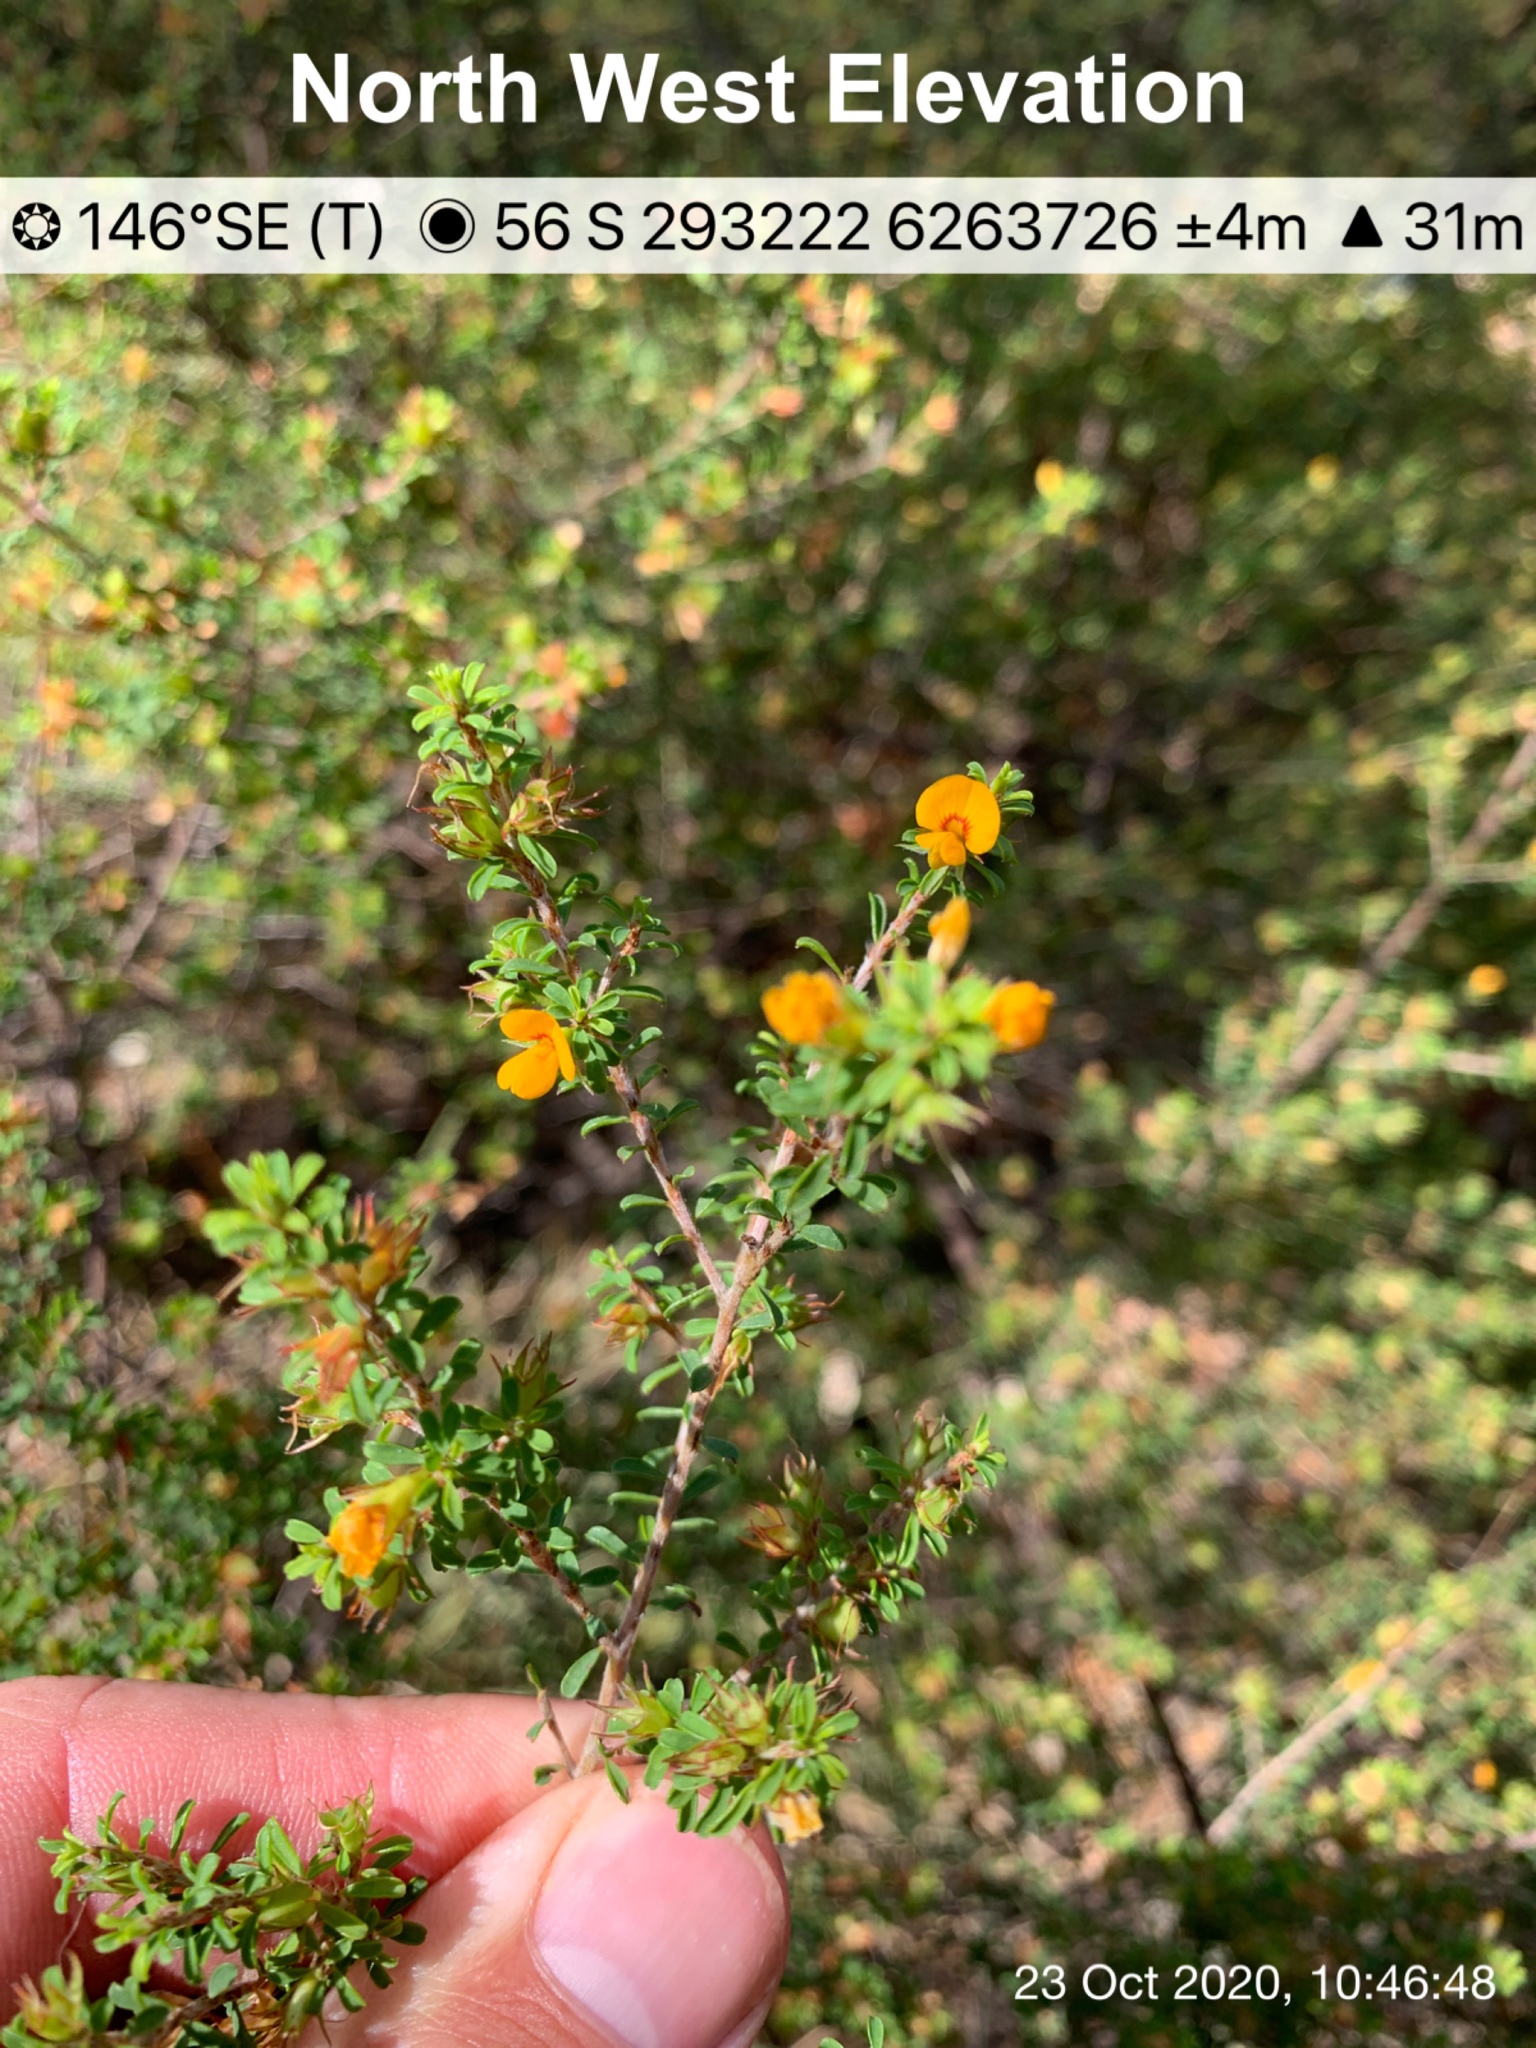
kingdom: Plantae
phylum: Tracheophyta
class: Magnoliopsida
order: Fabales
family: Fabaceae
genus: Pultenaea
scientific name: Pultenaea parviflora
